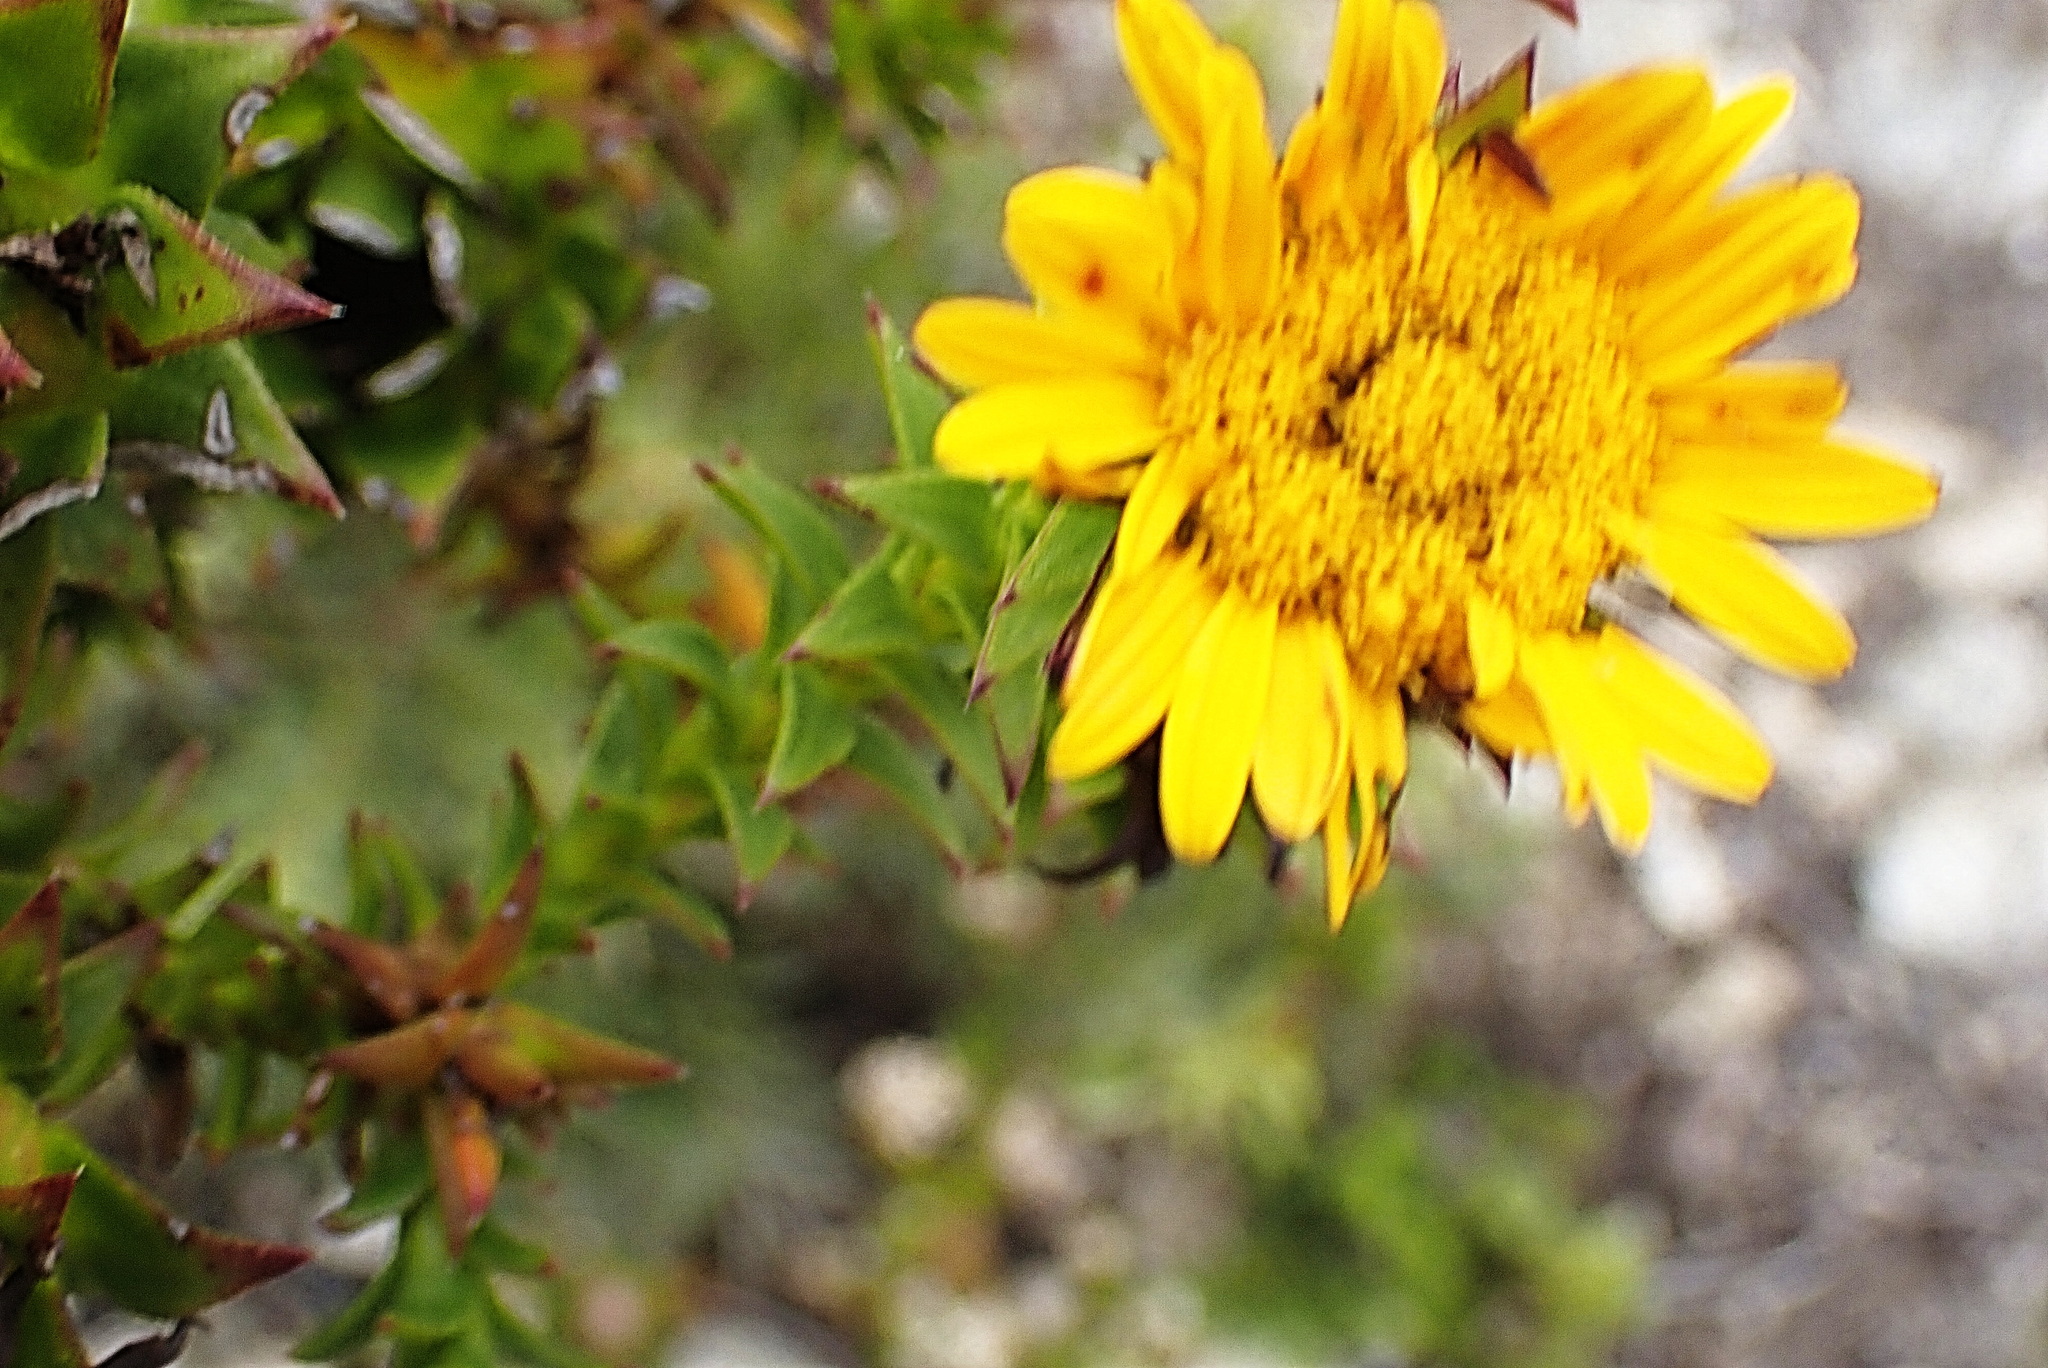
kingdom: Plantae
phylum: Tracheophyta
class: Magnoliopsida
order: Asterales
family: Asteraceae
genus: Oedera
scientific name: Oedera imbricata
